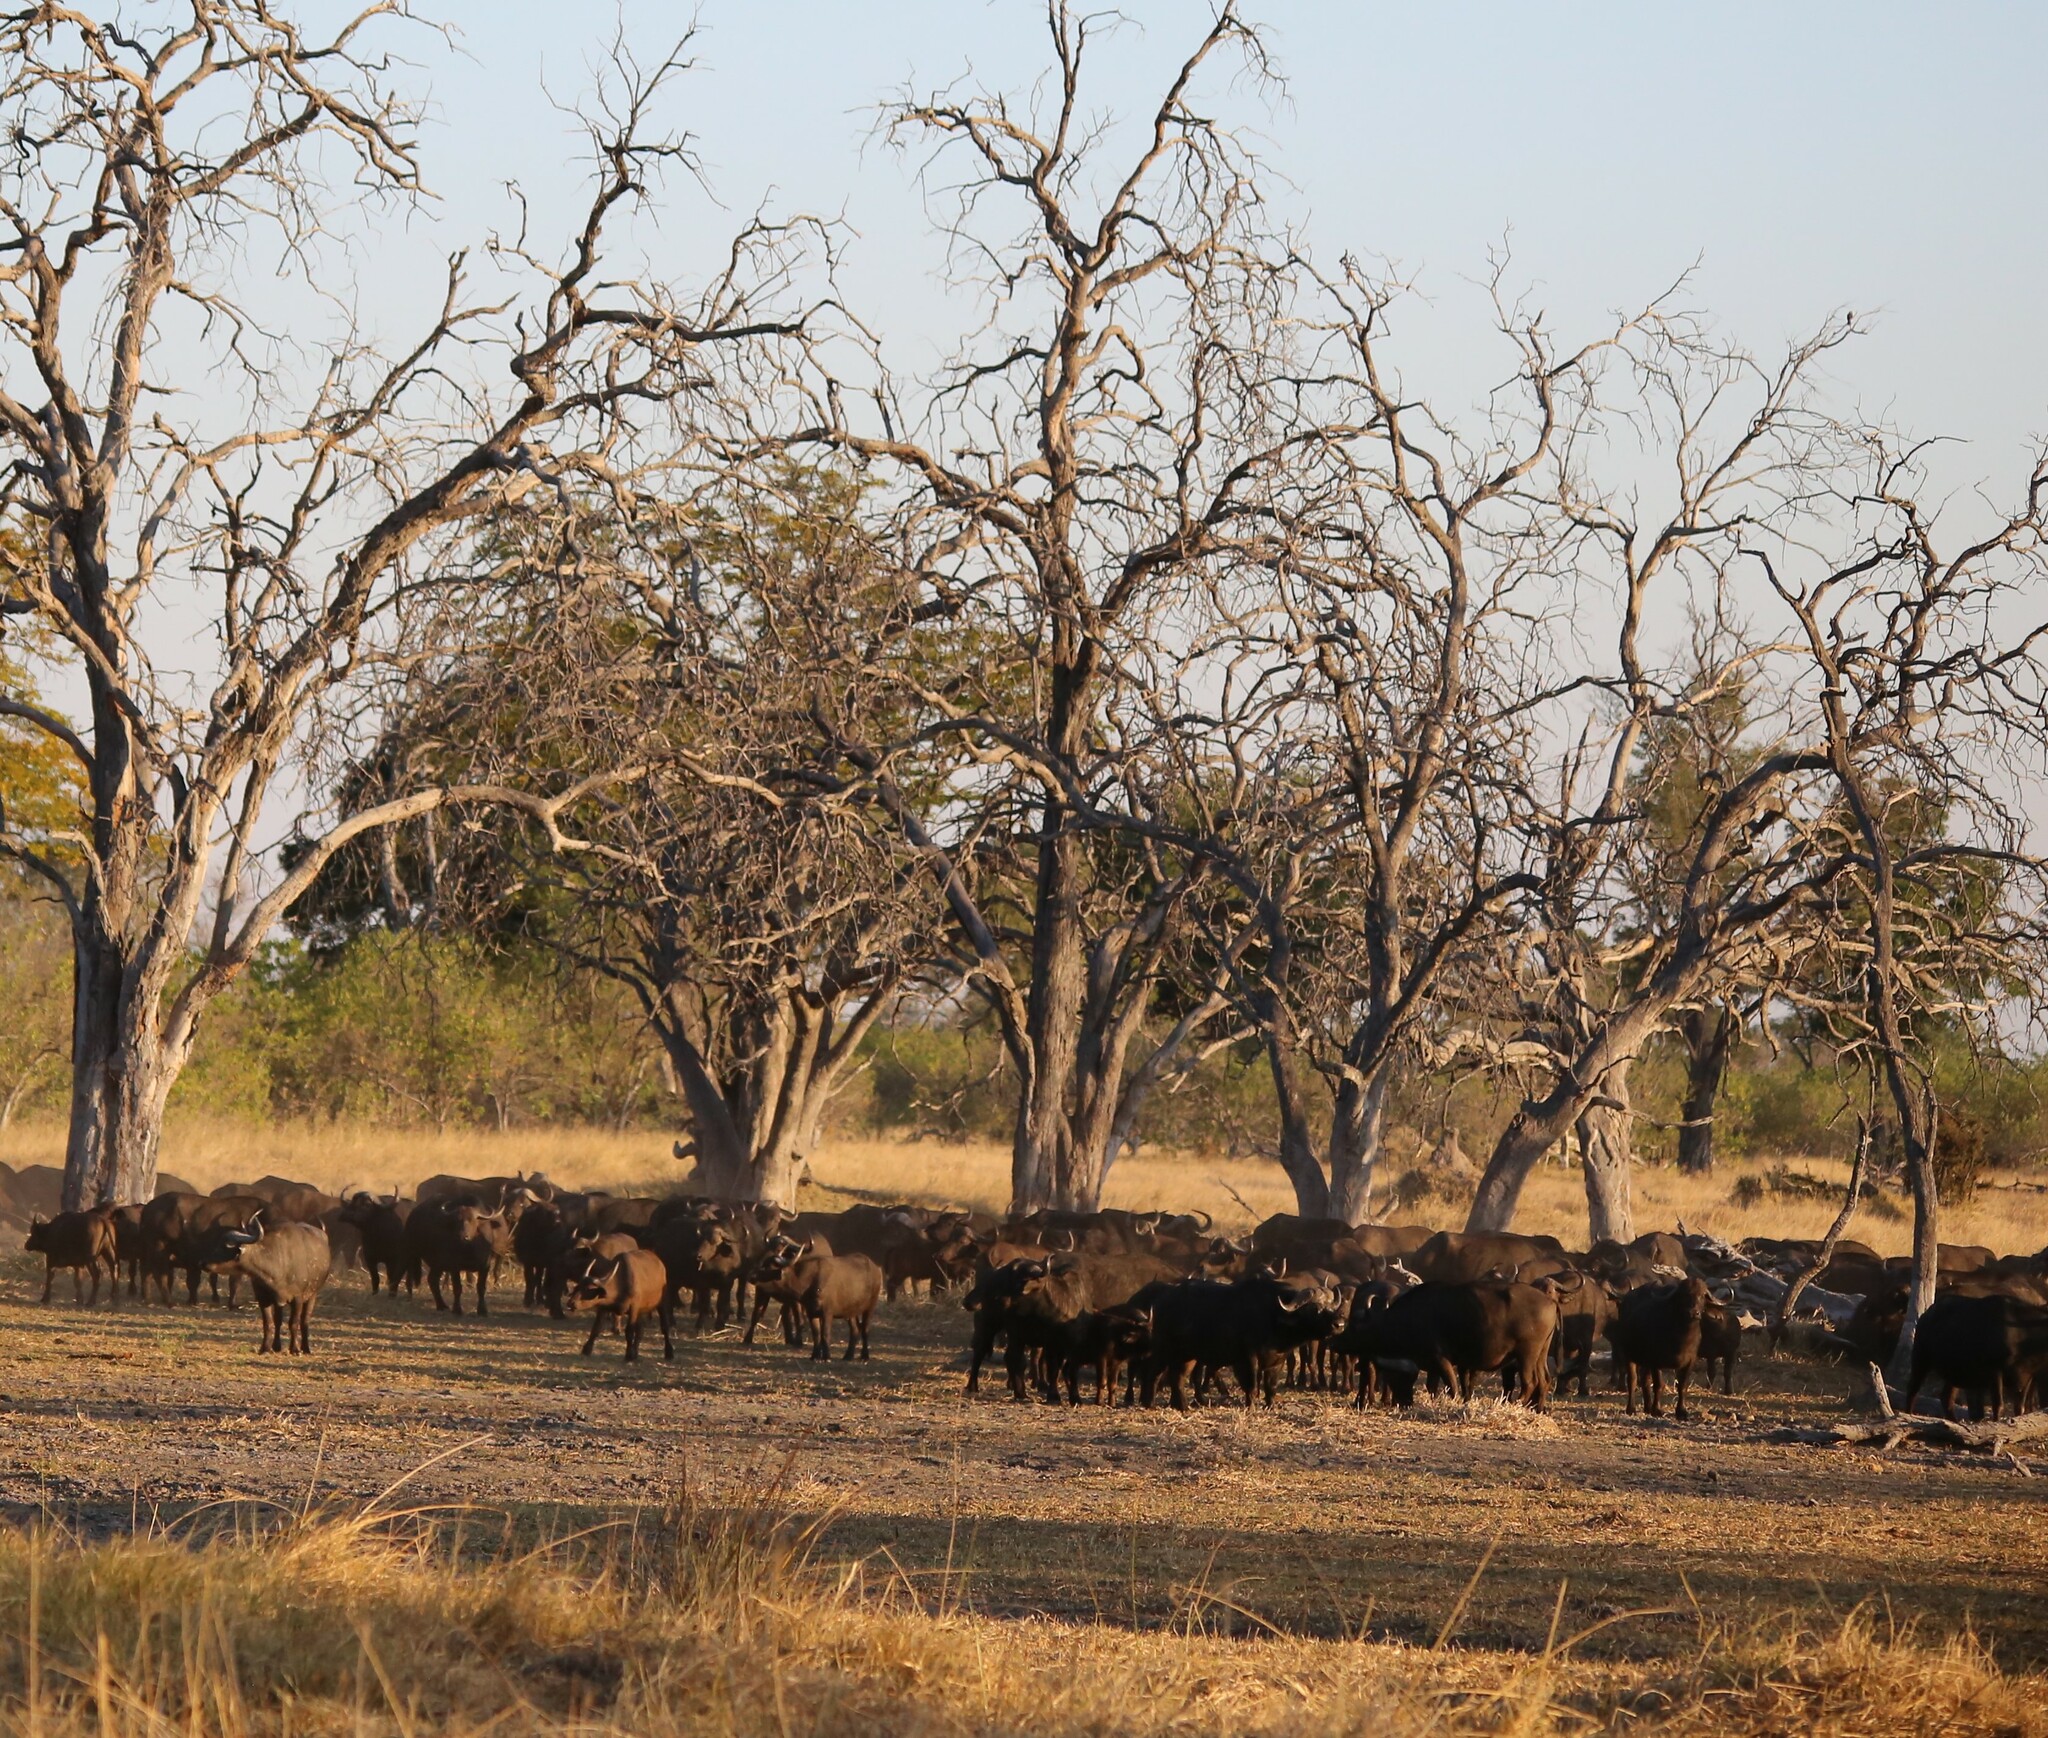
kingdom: Animalia
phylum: Chordata
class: Mammalia
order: Artiodactyla
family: Bovidae
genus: Syncerus
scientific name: Syncerus caffer
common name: African buffalo
